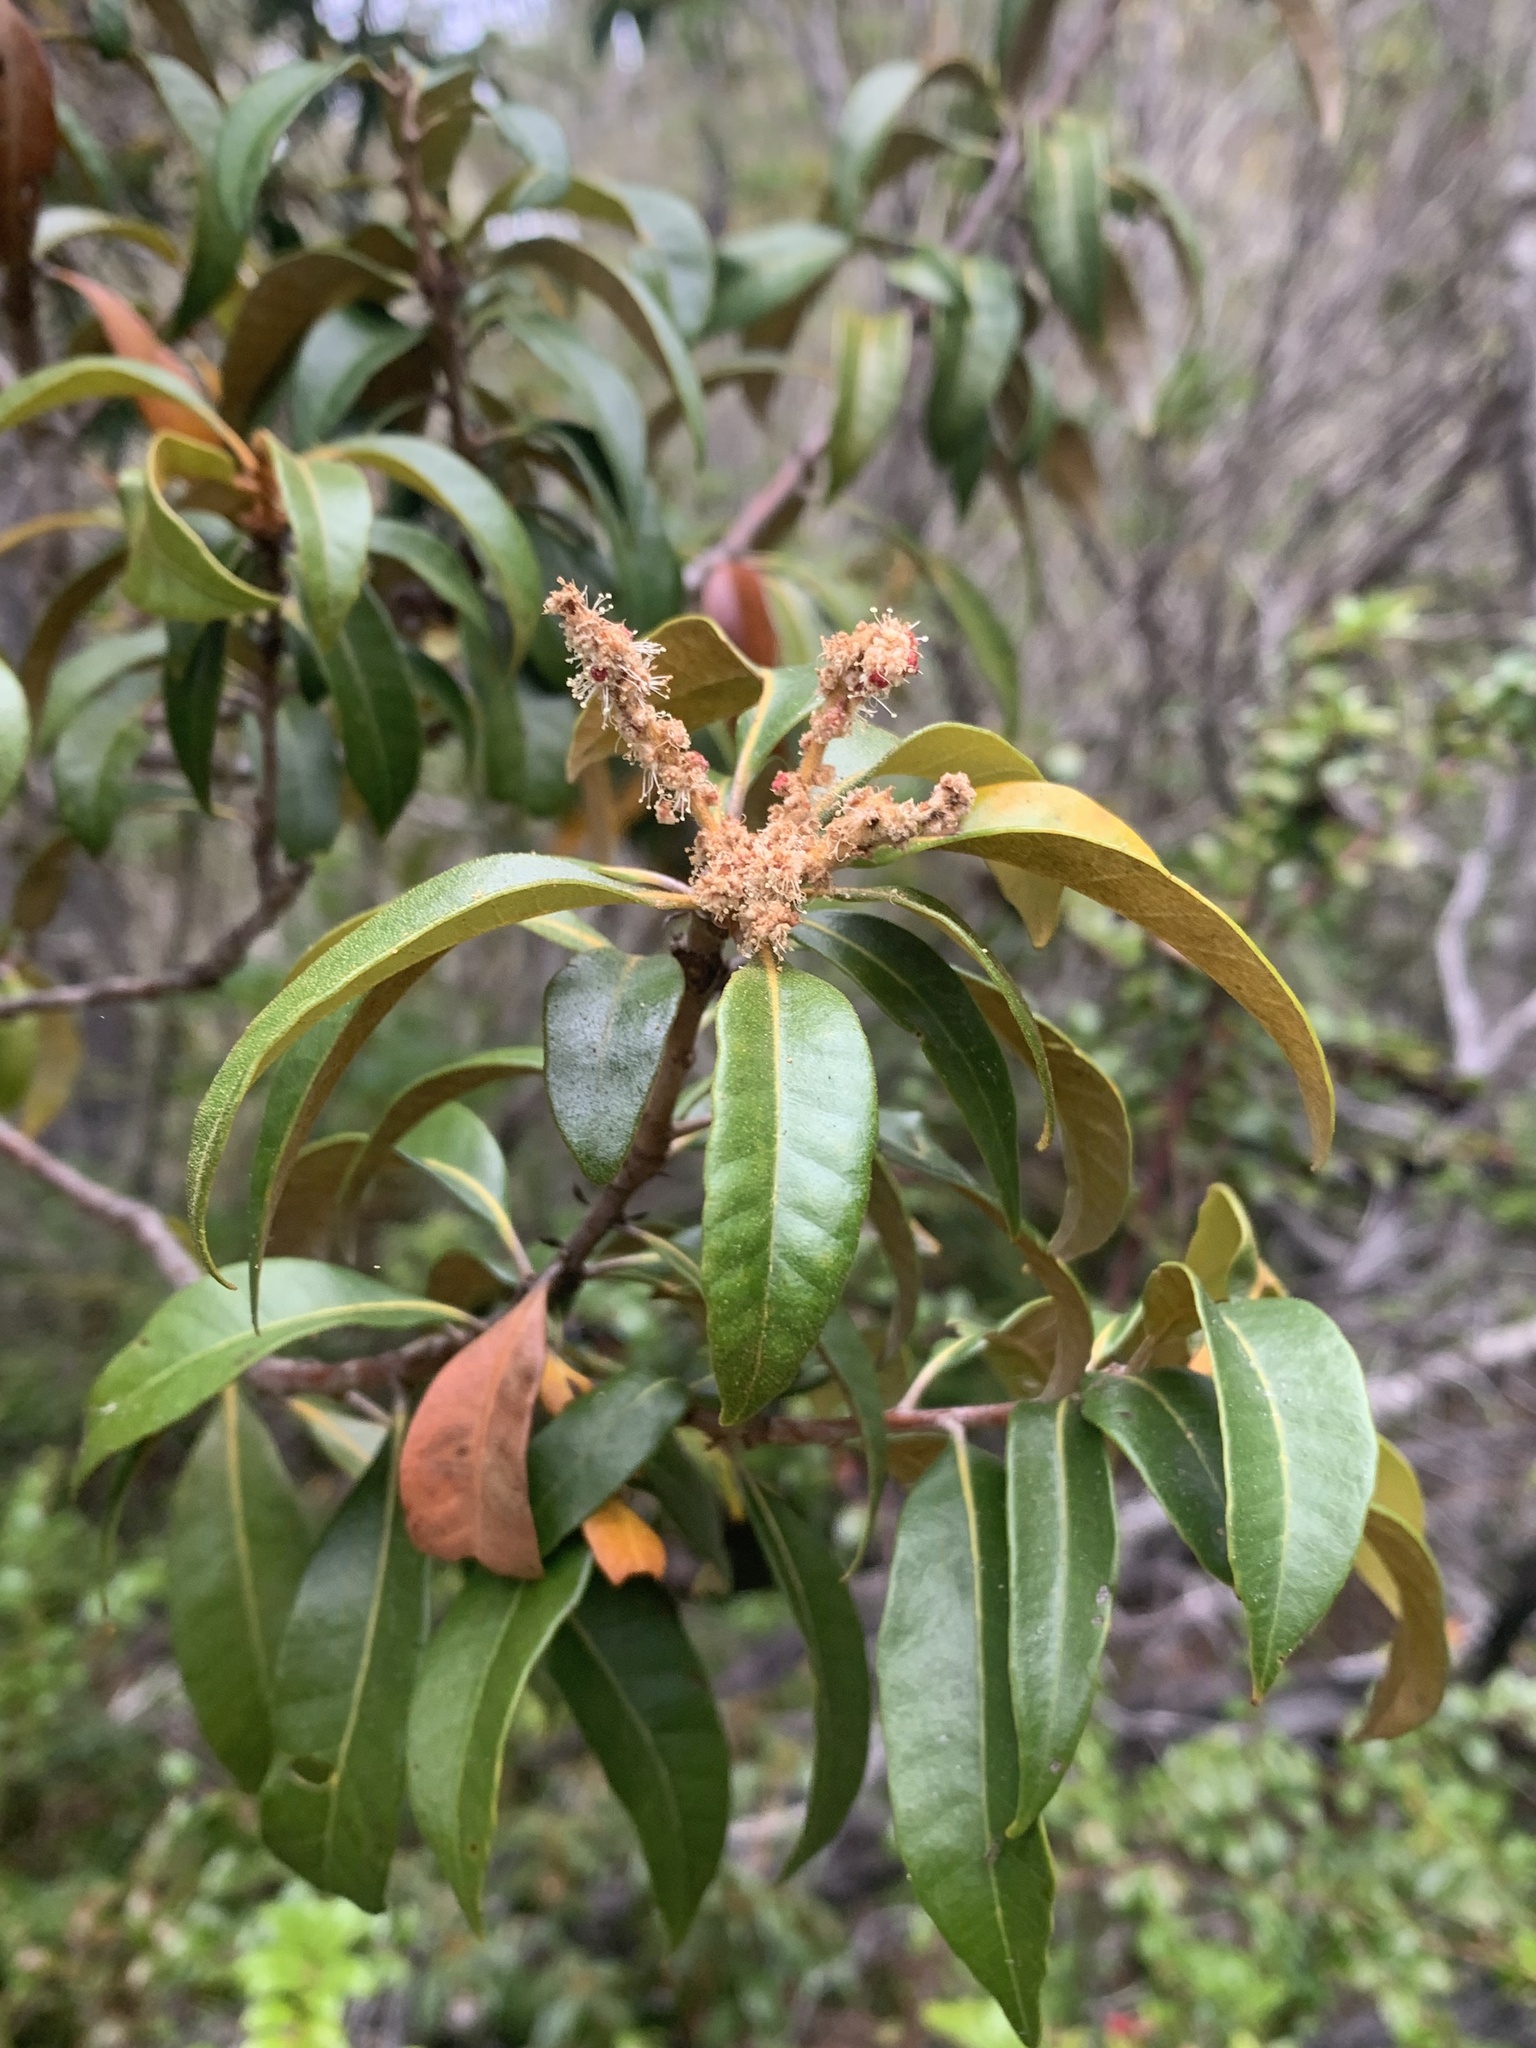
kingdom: Plantae
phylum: Tracheophyta
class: Magnoliopsida
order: Fagales
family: Fagaceae
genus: Chrysolepis
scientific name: Chrysolepis chrysophylla
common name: Giant chinquapin
